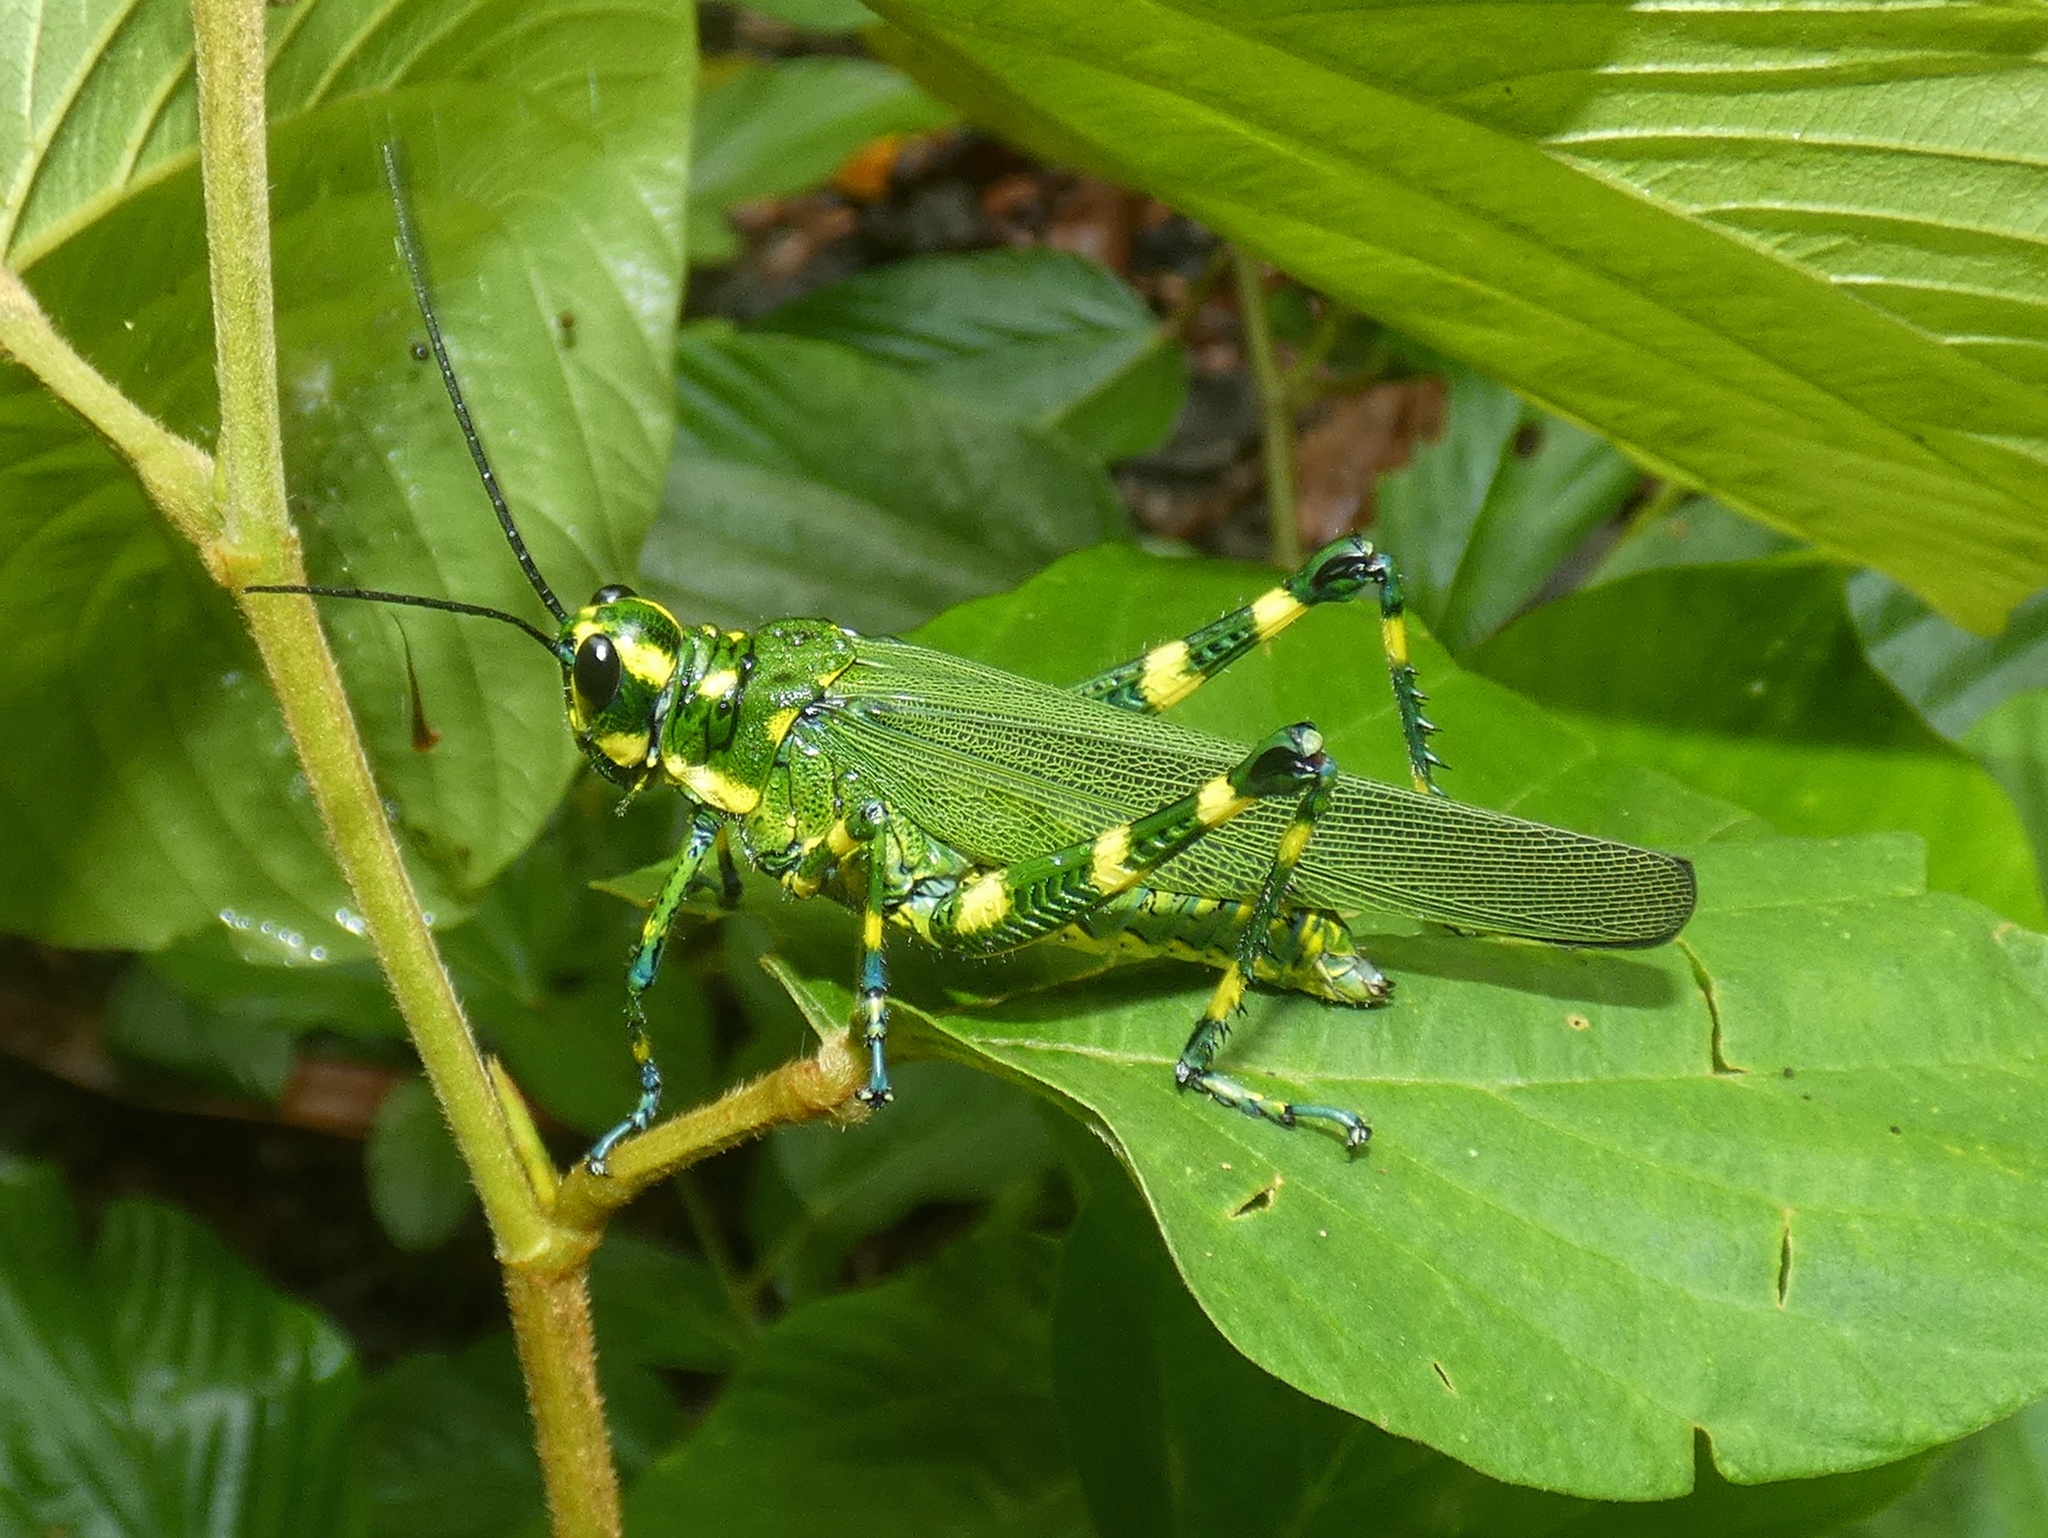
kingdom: Animalia
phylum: Arthropoda
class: Insecta
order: Orthoptera
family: Romaleidae
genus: Chromacris
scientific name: Chromacris psittacus
